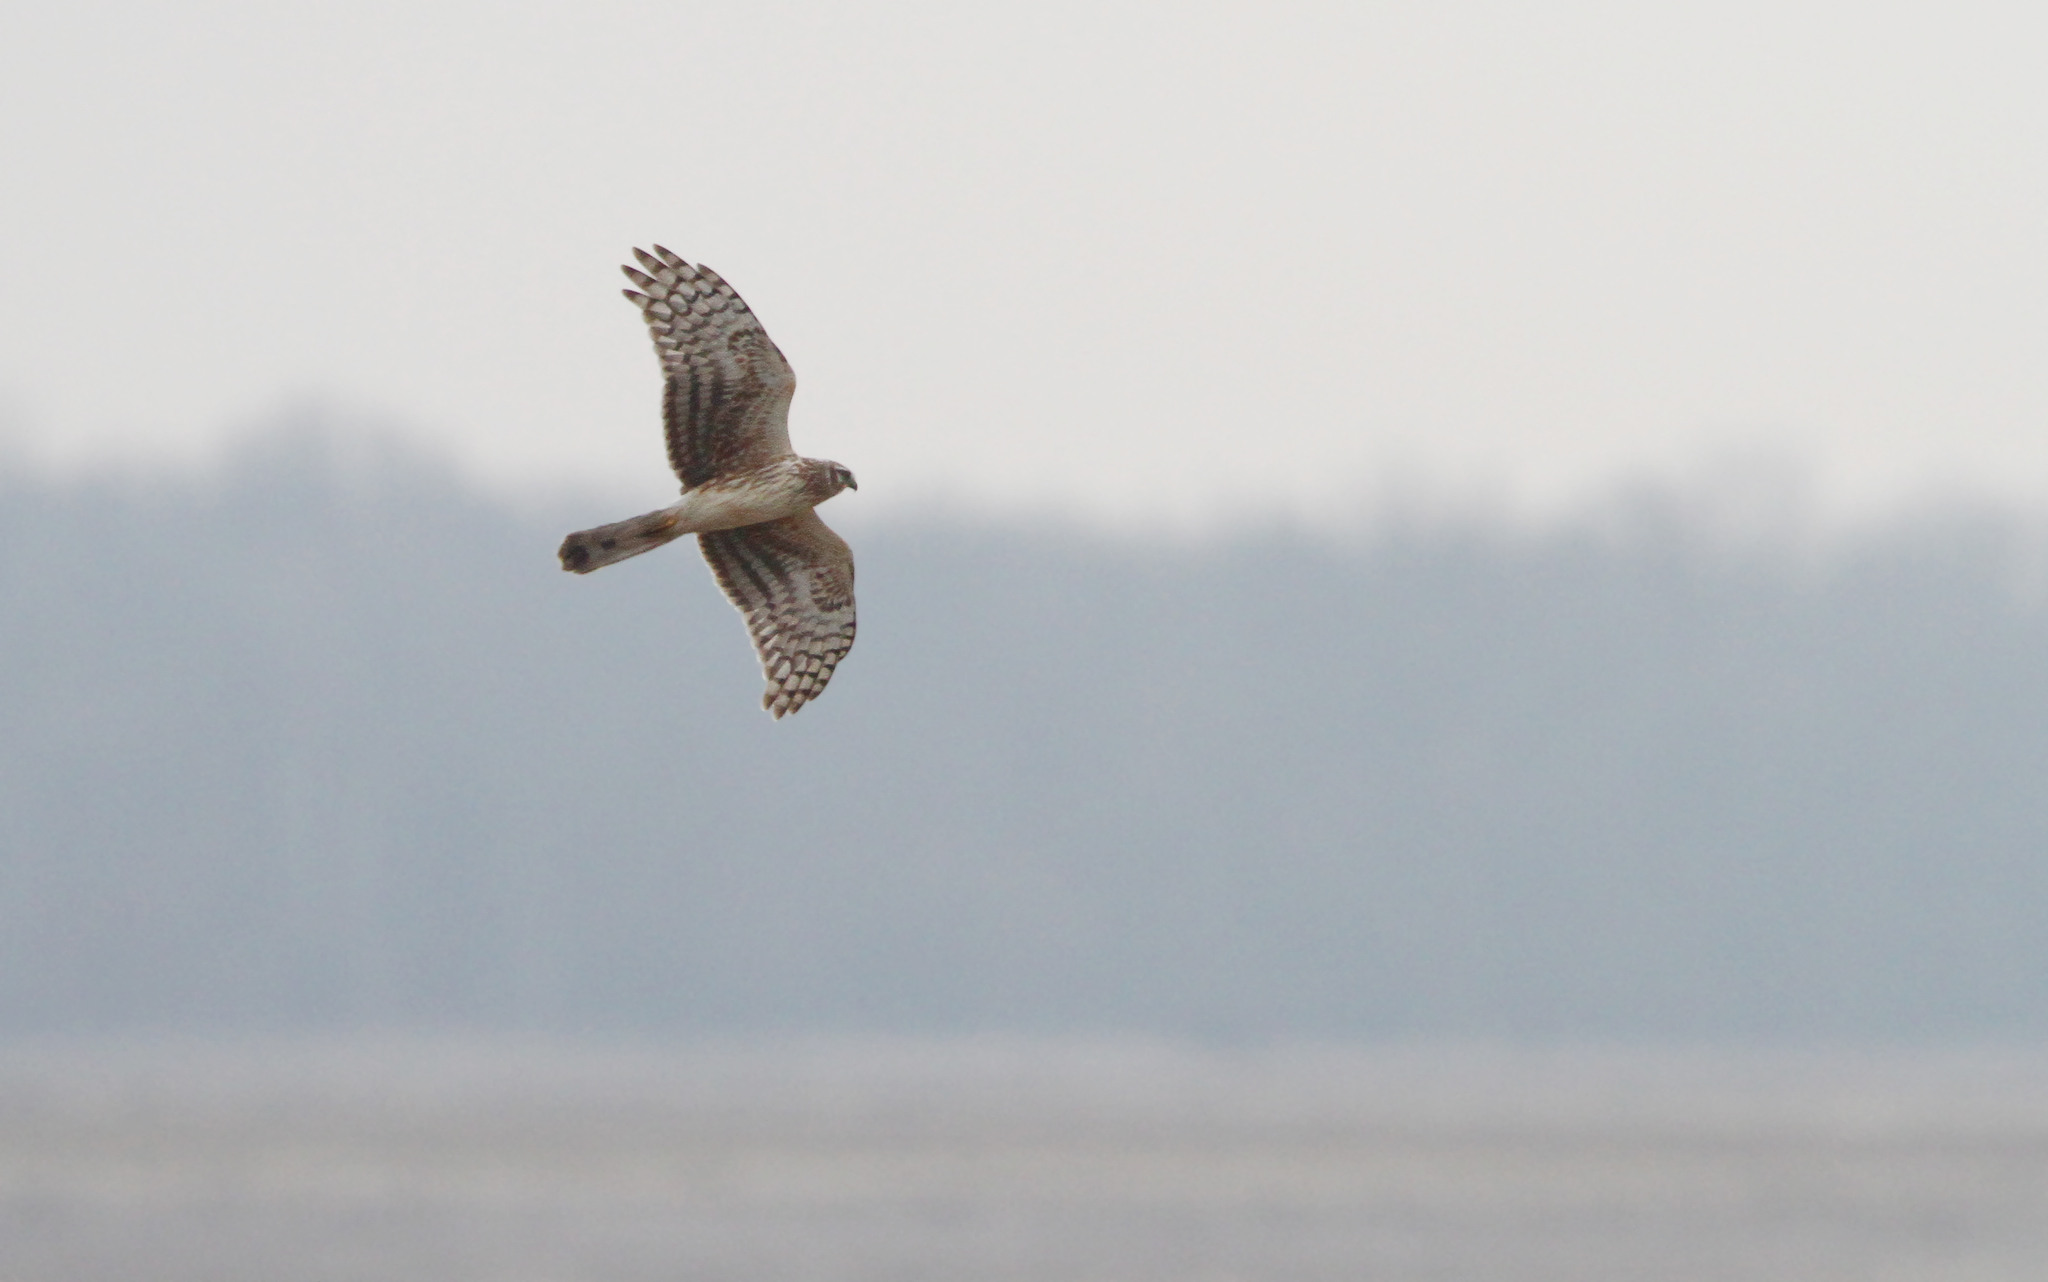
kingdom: Animalia
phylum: Chordata
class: Aves
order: Accipitriformes
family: Accipitridae
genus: Circus
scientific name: Circus cyaneus
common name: Hen harrier
